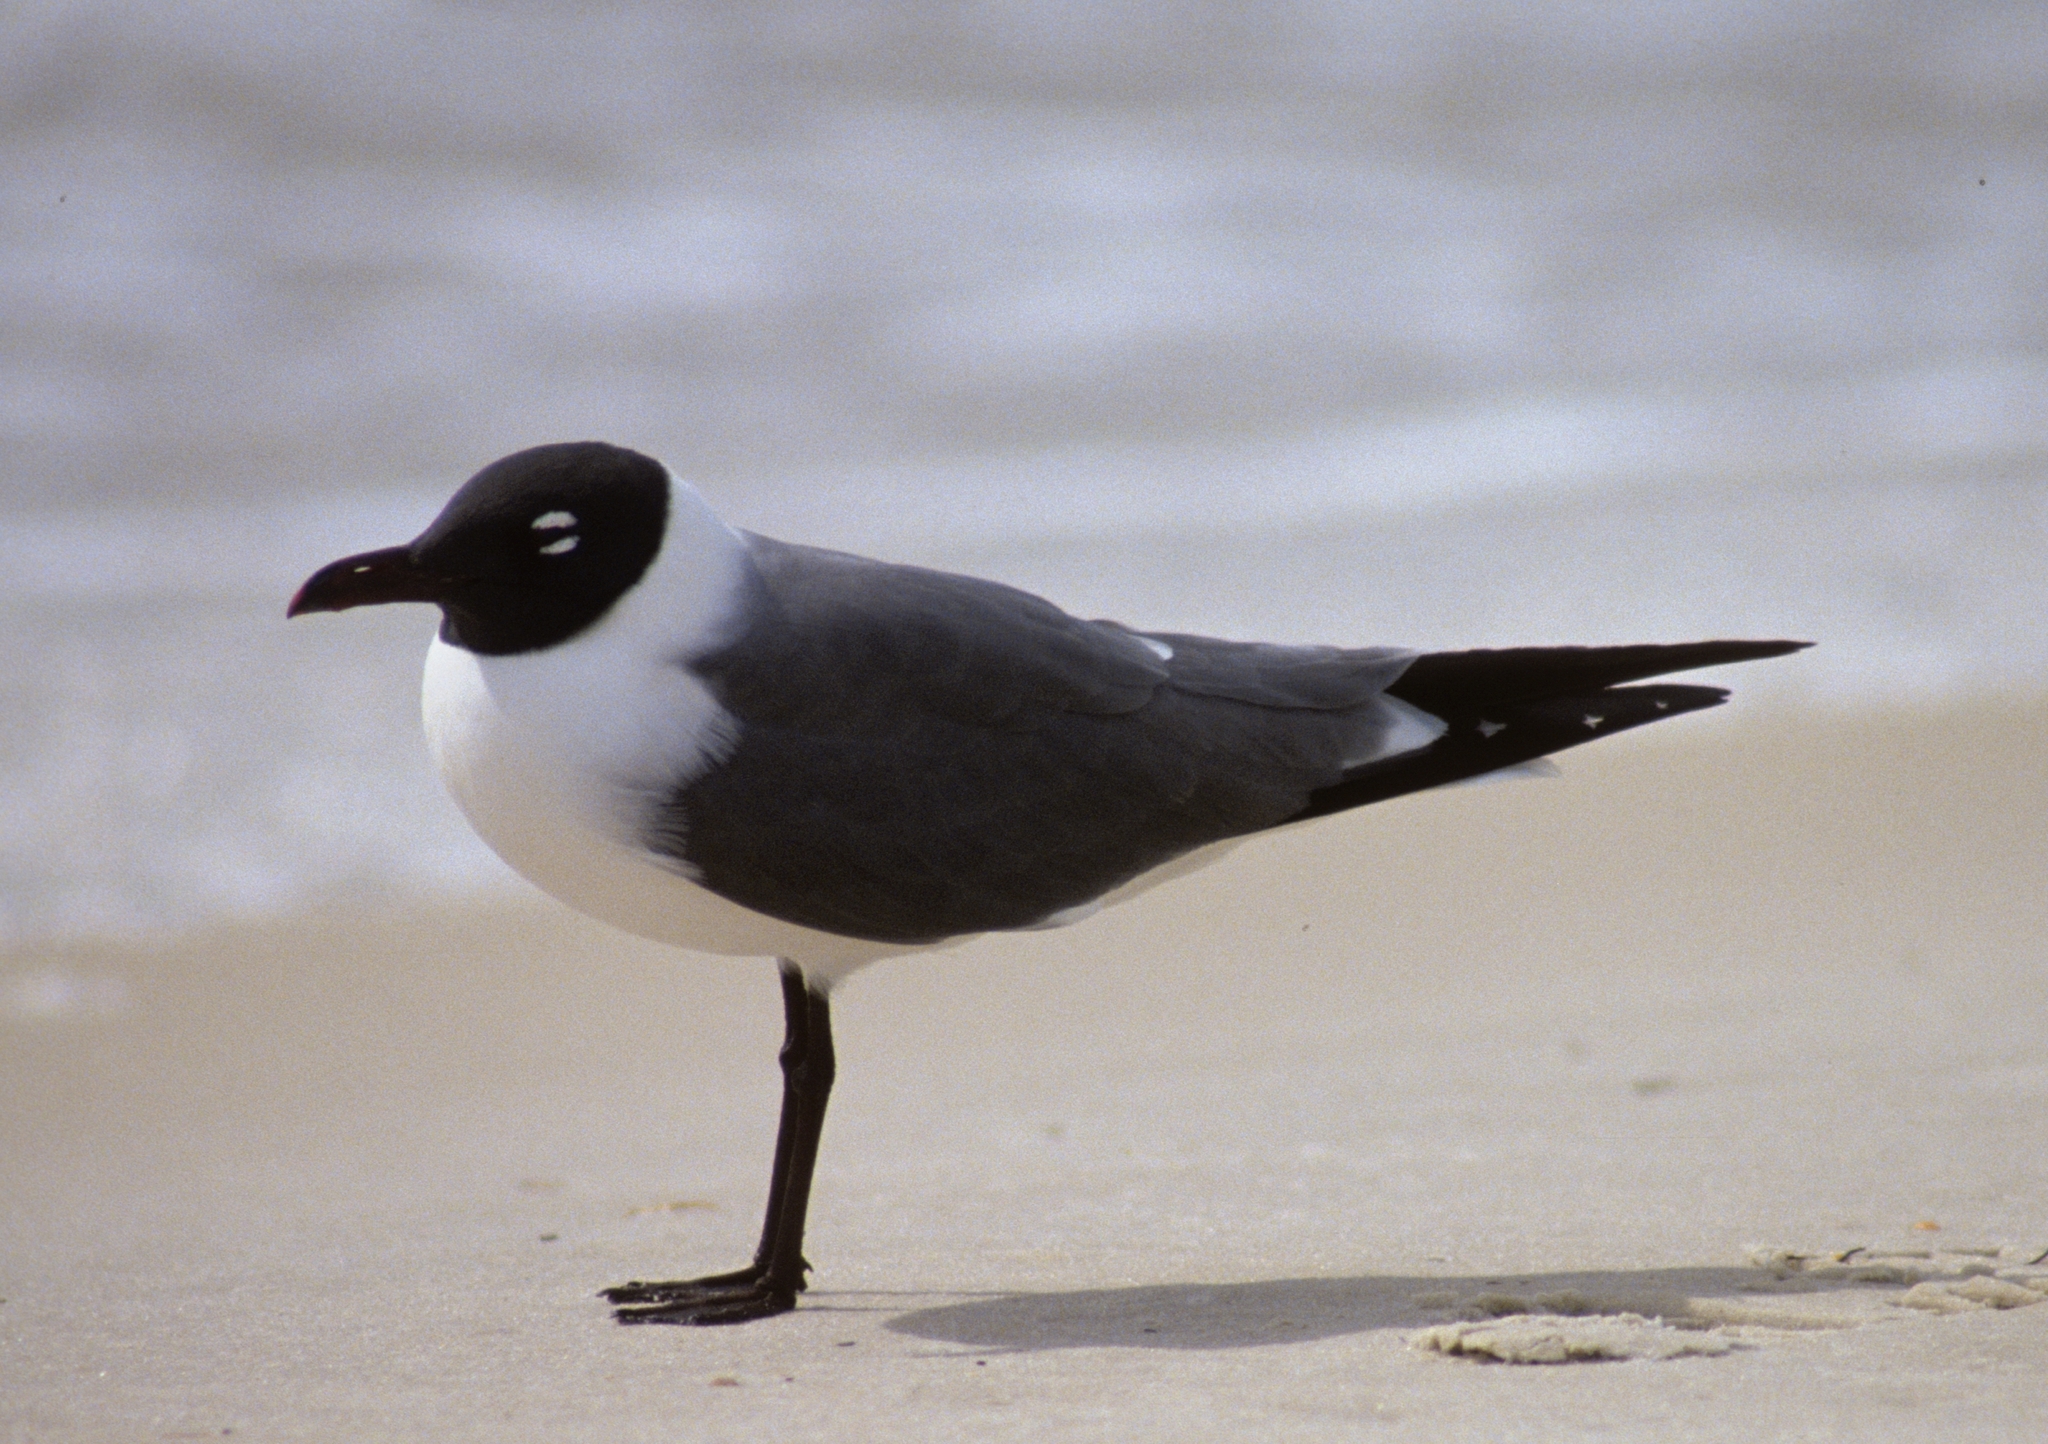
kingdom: Animalia
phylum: Chordata
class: Aves
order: Charadriiformes
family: Laridae
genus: Leucophaeus
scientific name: Leucophaeus atricilla
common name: Laughing gull
